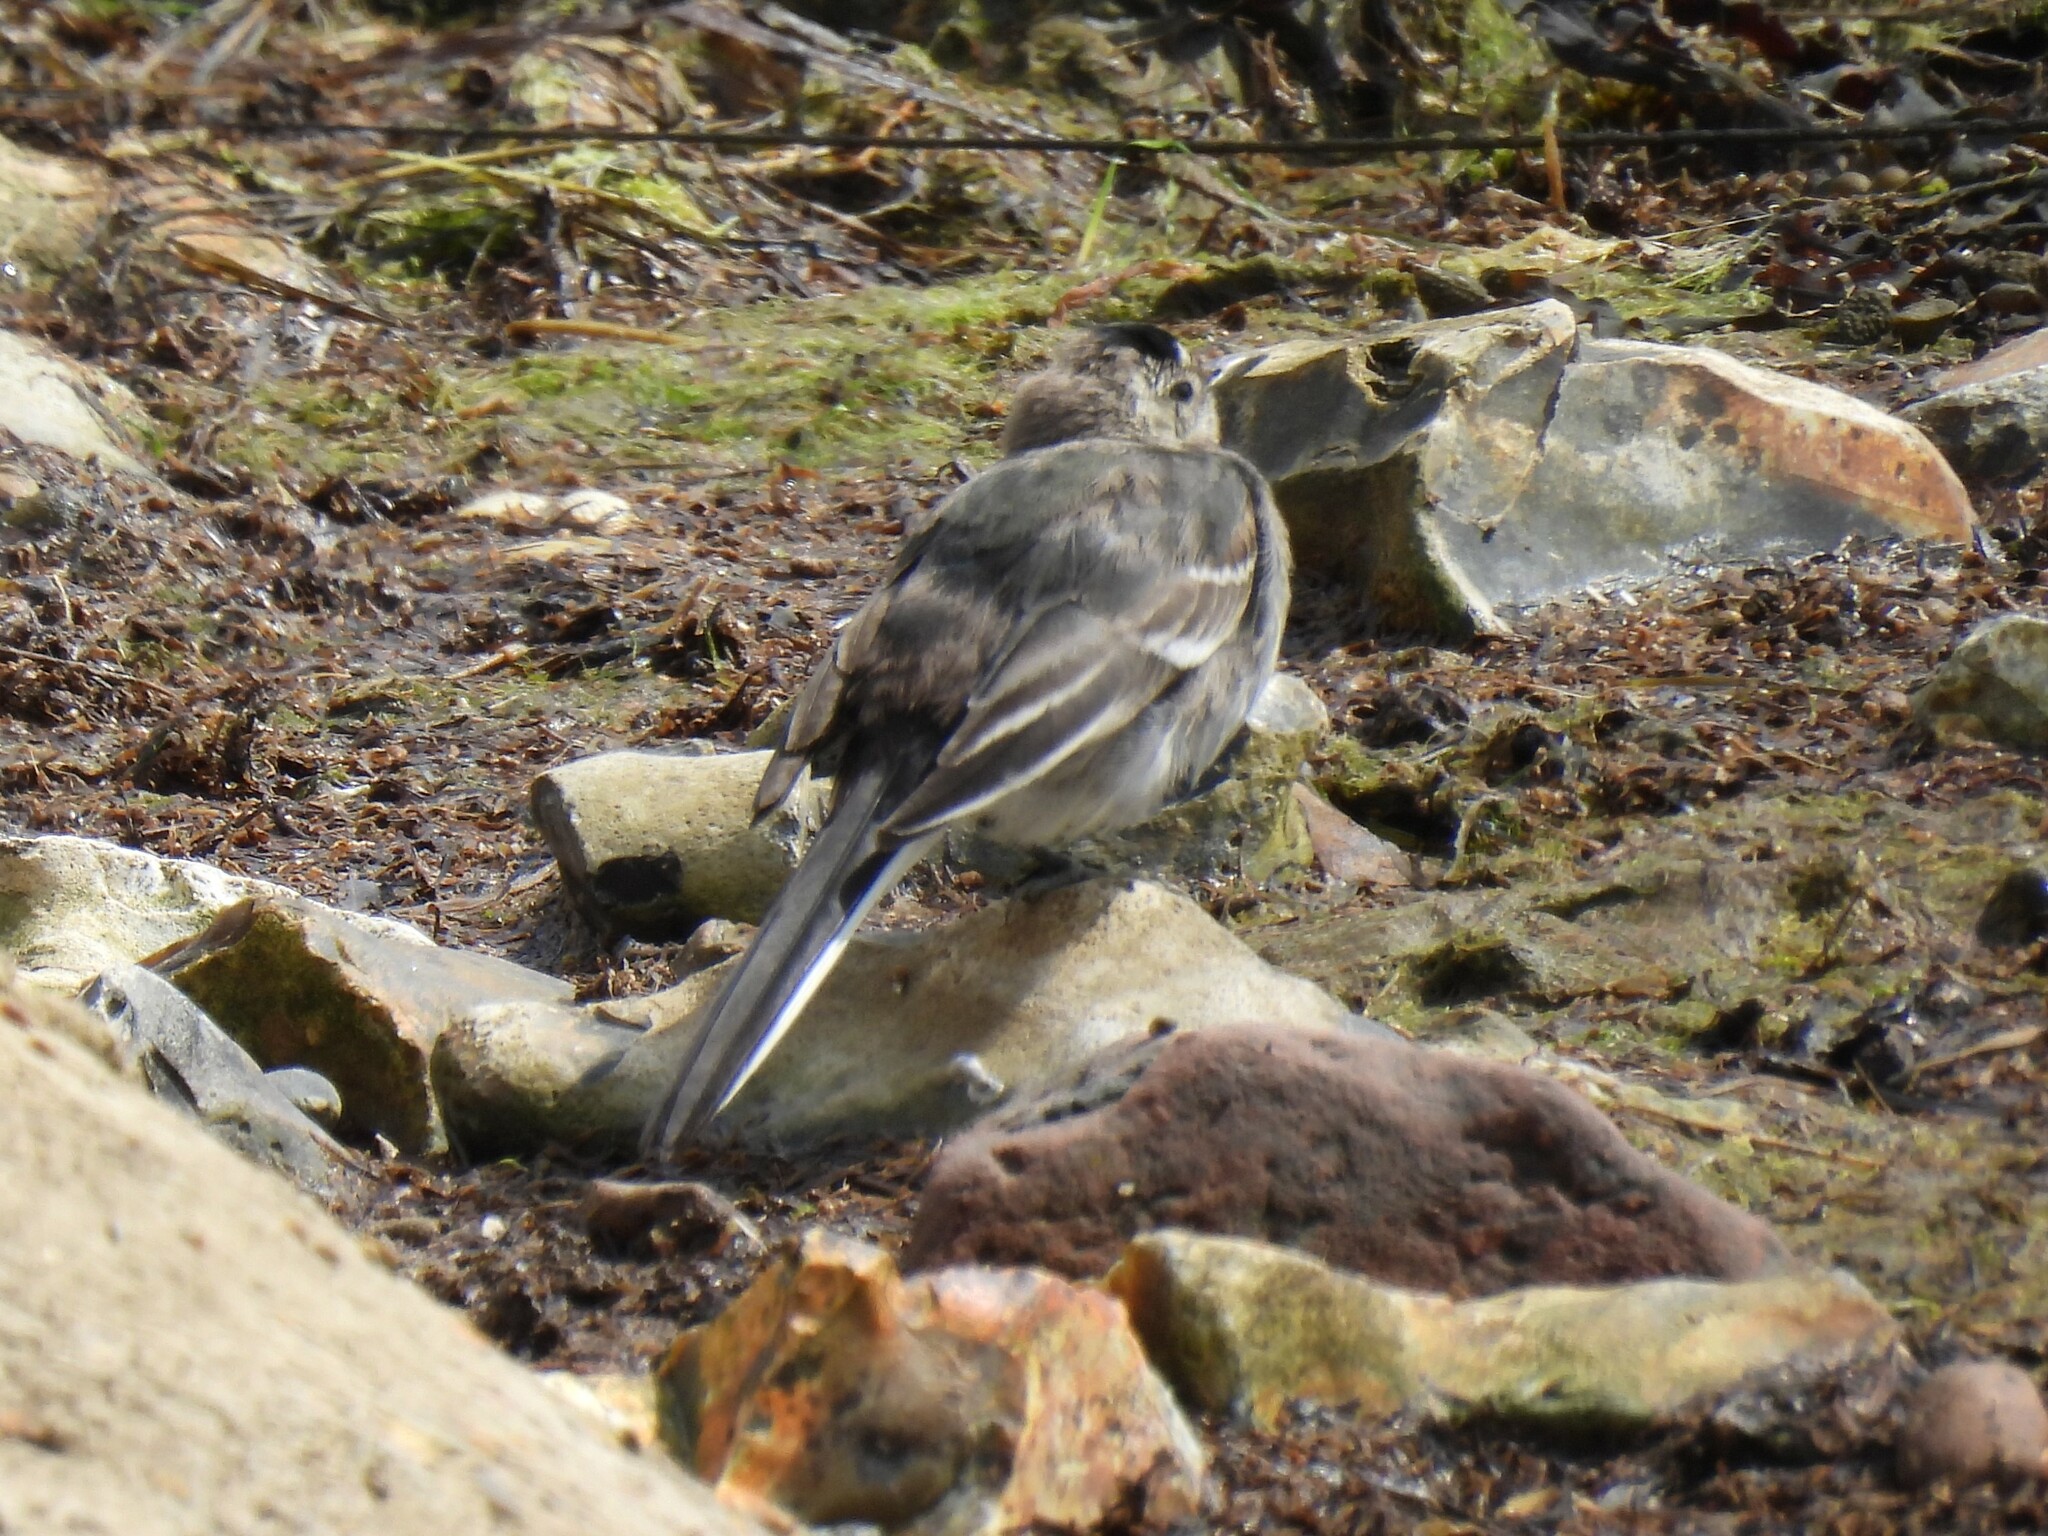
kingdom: Animalia
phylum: Chordata
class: Aves
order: Passeriformes
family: Motacillidae
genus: Motacilla
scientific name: Motacilla alba
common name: White wagtail
